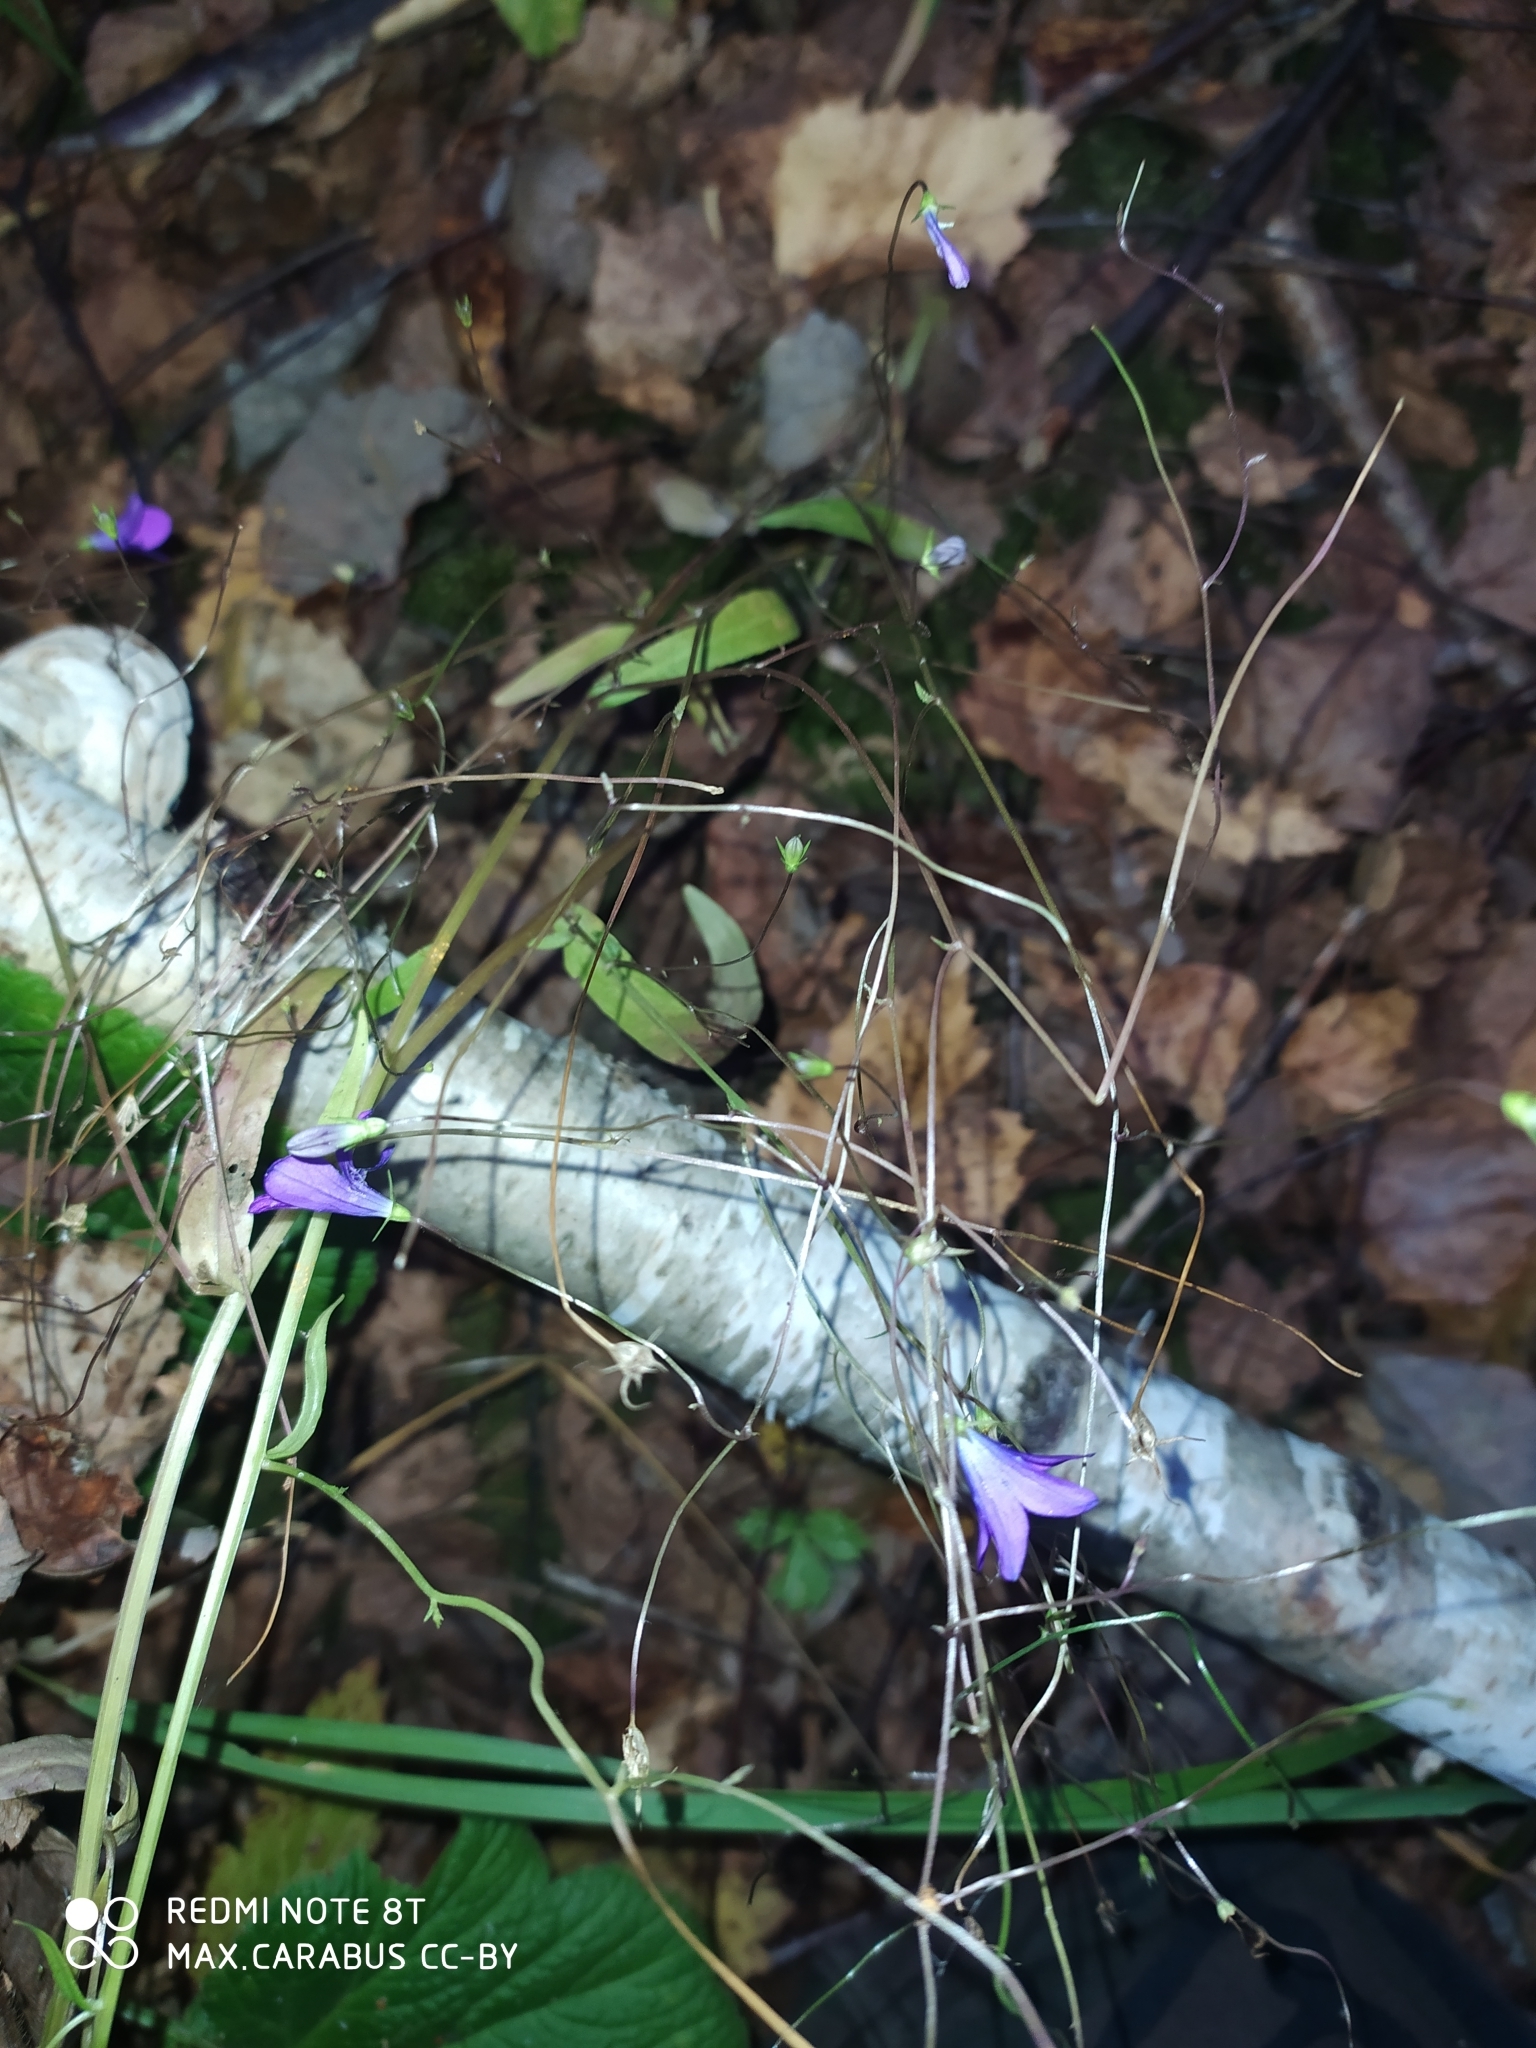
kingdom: Plantae
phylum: Tracheophyta
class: Magnoliopsida
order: Asterales
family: Campanulaceae
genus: Campanula
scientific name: Campanula patula
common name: Spreading bellflower
